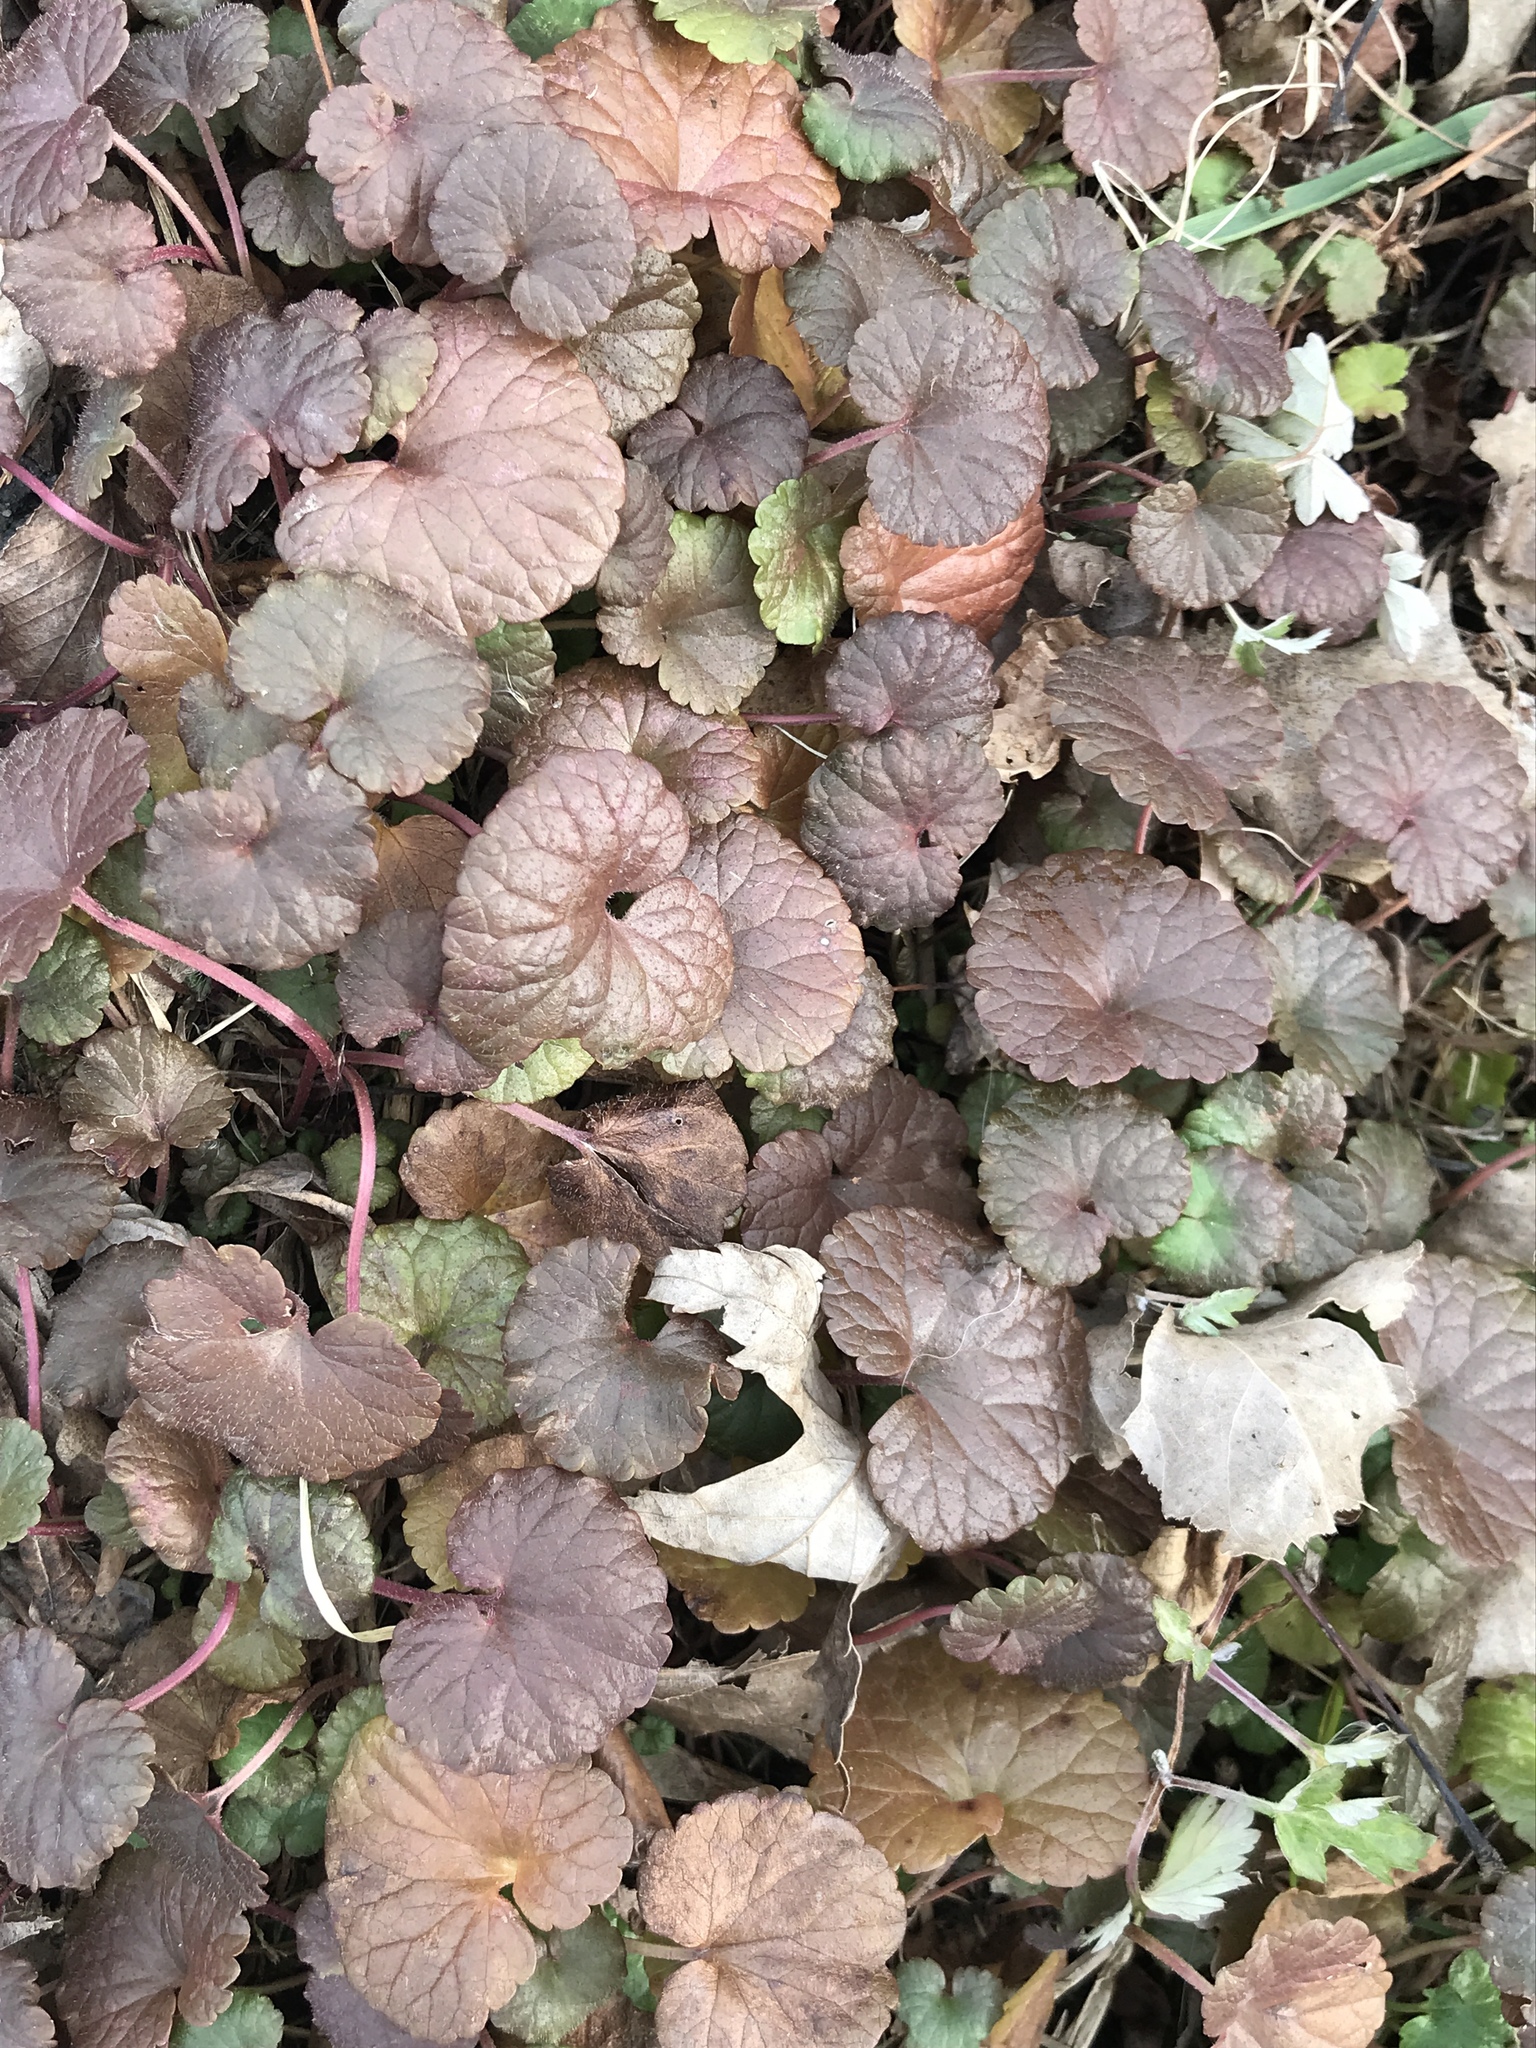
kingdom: Plantae
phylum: Tracheophyta
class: Magnoliopsida
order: Lamiales
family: Lamiaceae
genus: Glechoma
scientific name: Glechoma hederacea
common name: Ground ivy
